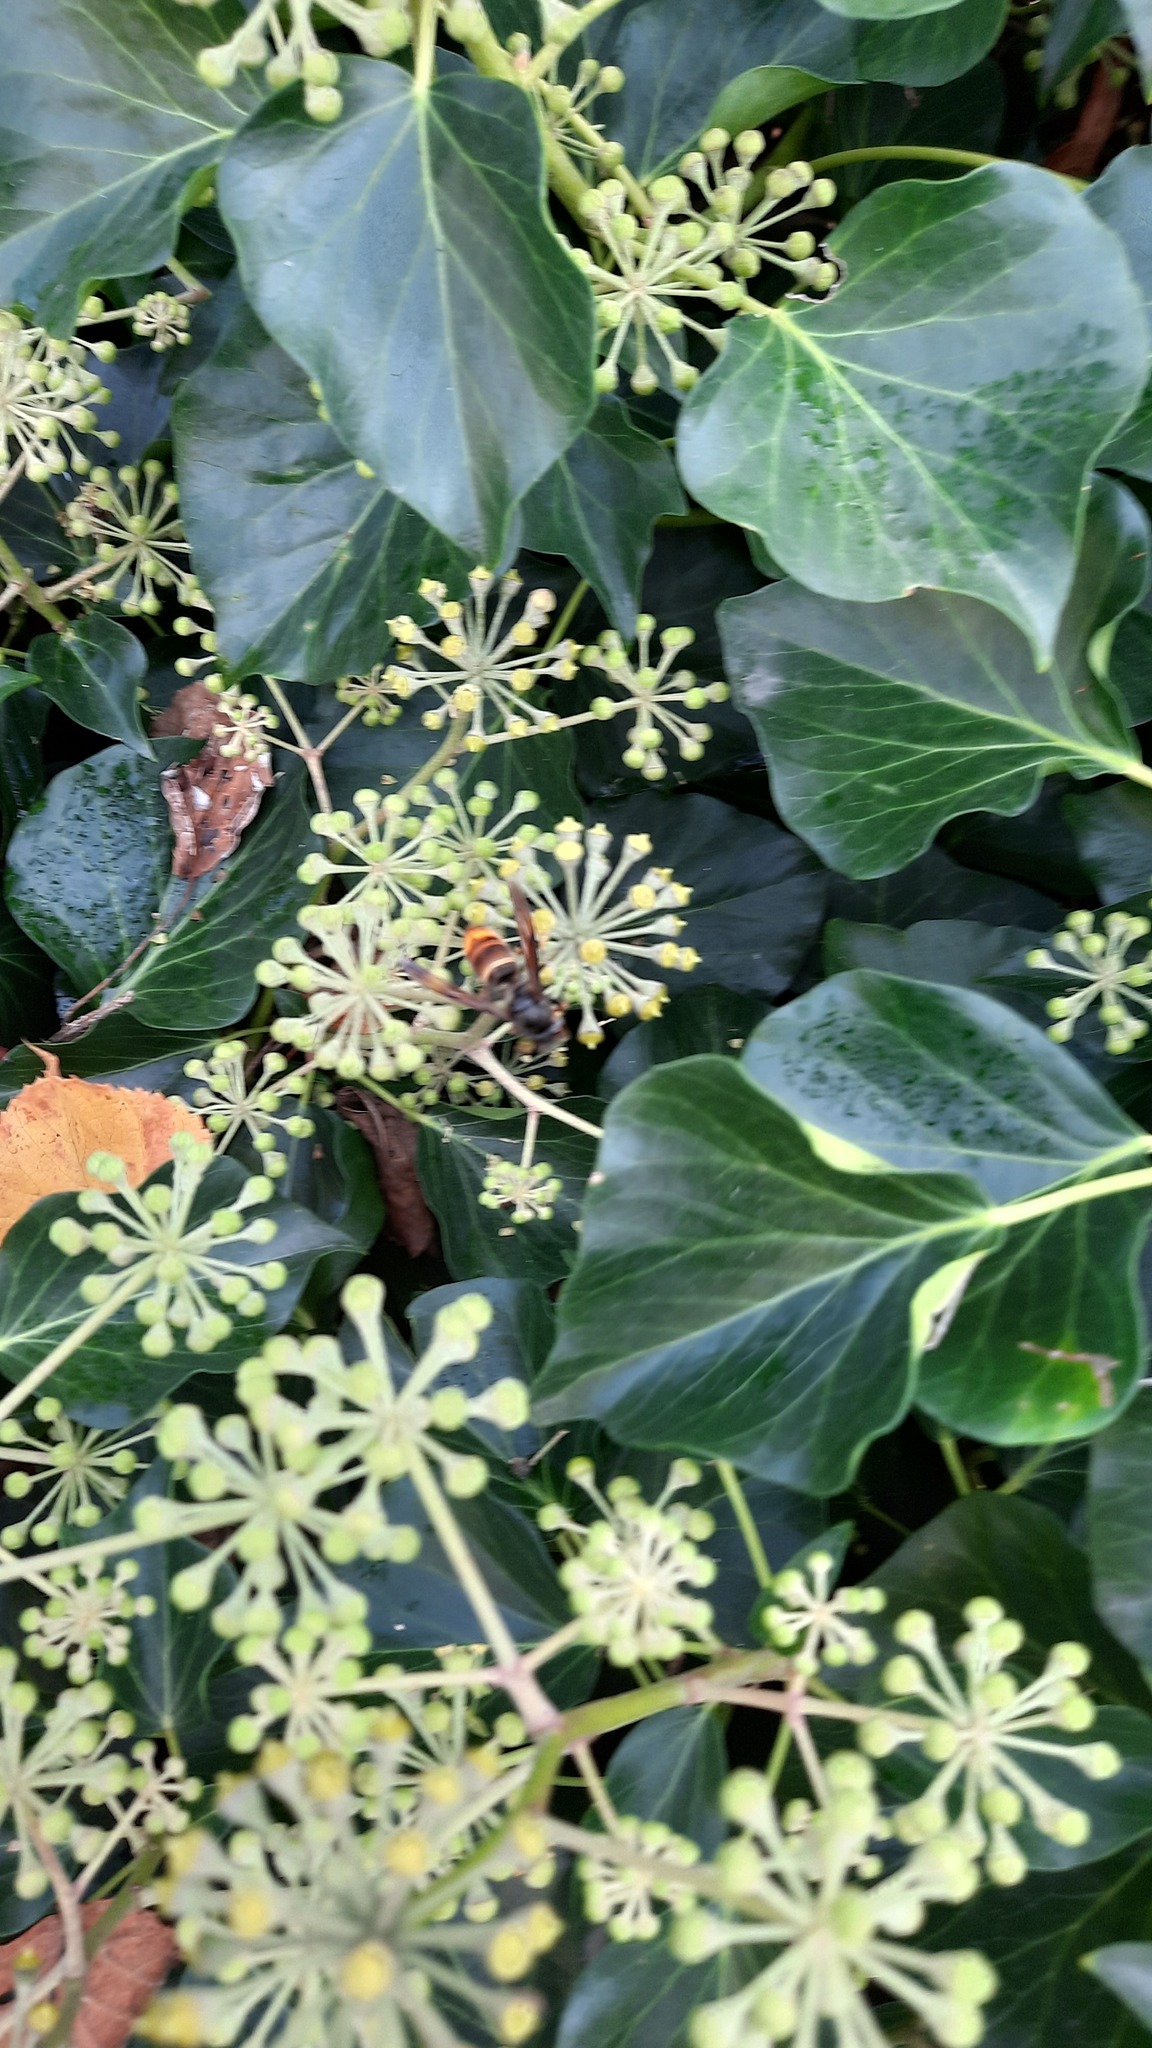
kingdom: Animalia
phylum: Arthropoda
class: Insecta
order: Hymenoptera
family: Vespidae
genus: Vespa
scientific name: Vespa velutina
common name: Asian hornet
